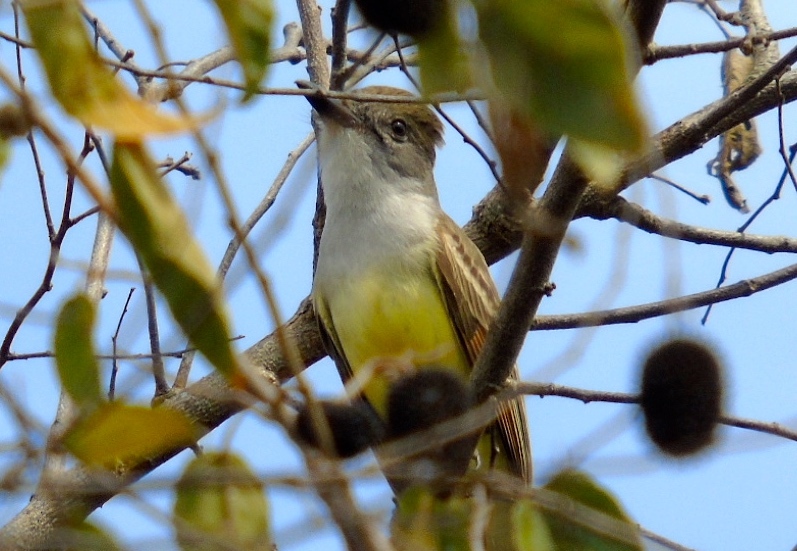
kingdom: Animalia
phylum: Chordata
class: Aves
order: Passeriformes
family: Tyrannidae
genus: Myiarchus
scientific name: Myiarchus
